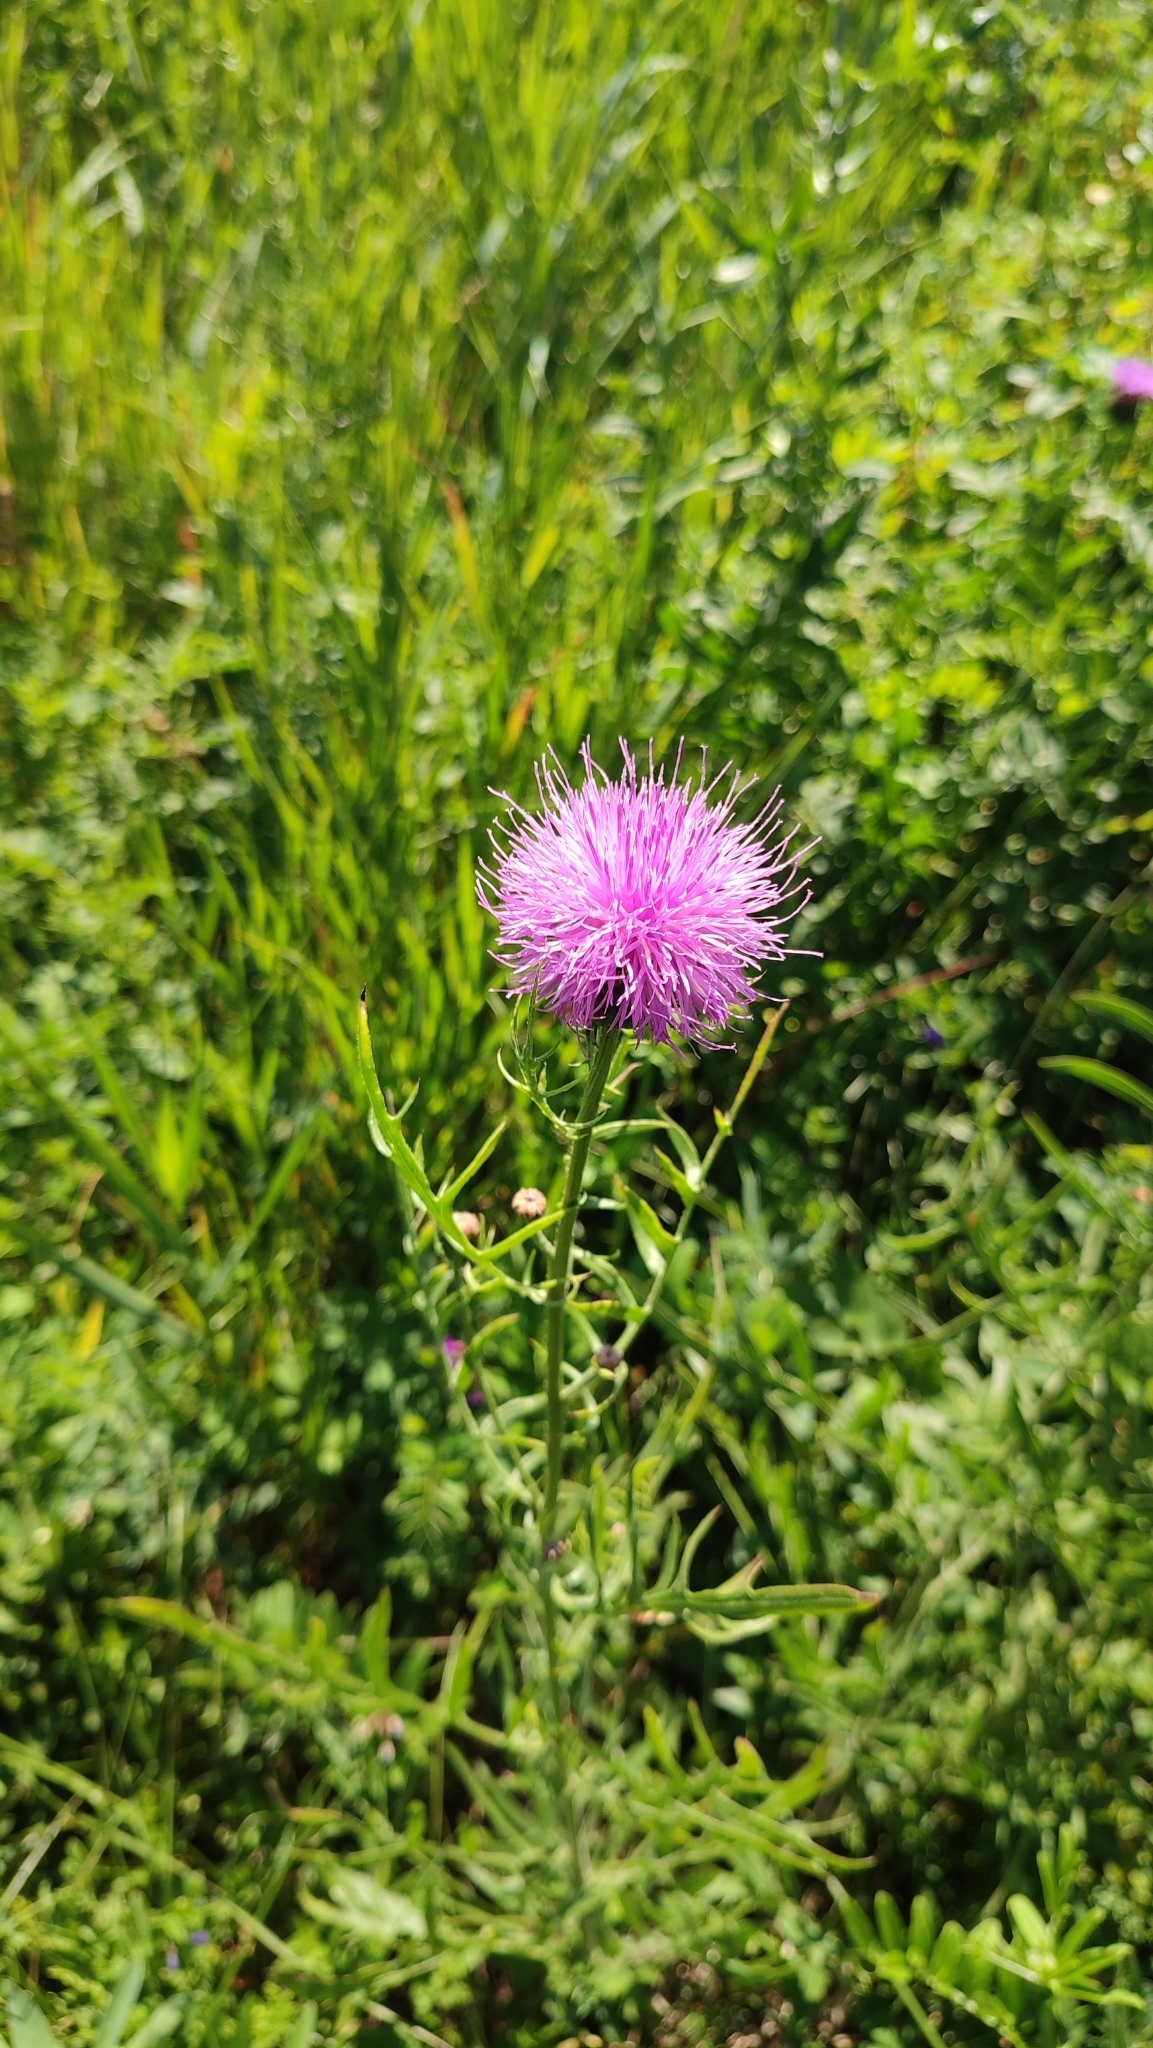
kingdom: Plantae
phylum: Tracheophyta
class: Magnoliopsida
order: Asterales
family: Asteraceae
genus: Klasea
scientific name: Klasea centauroides
